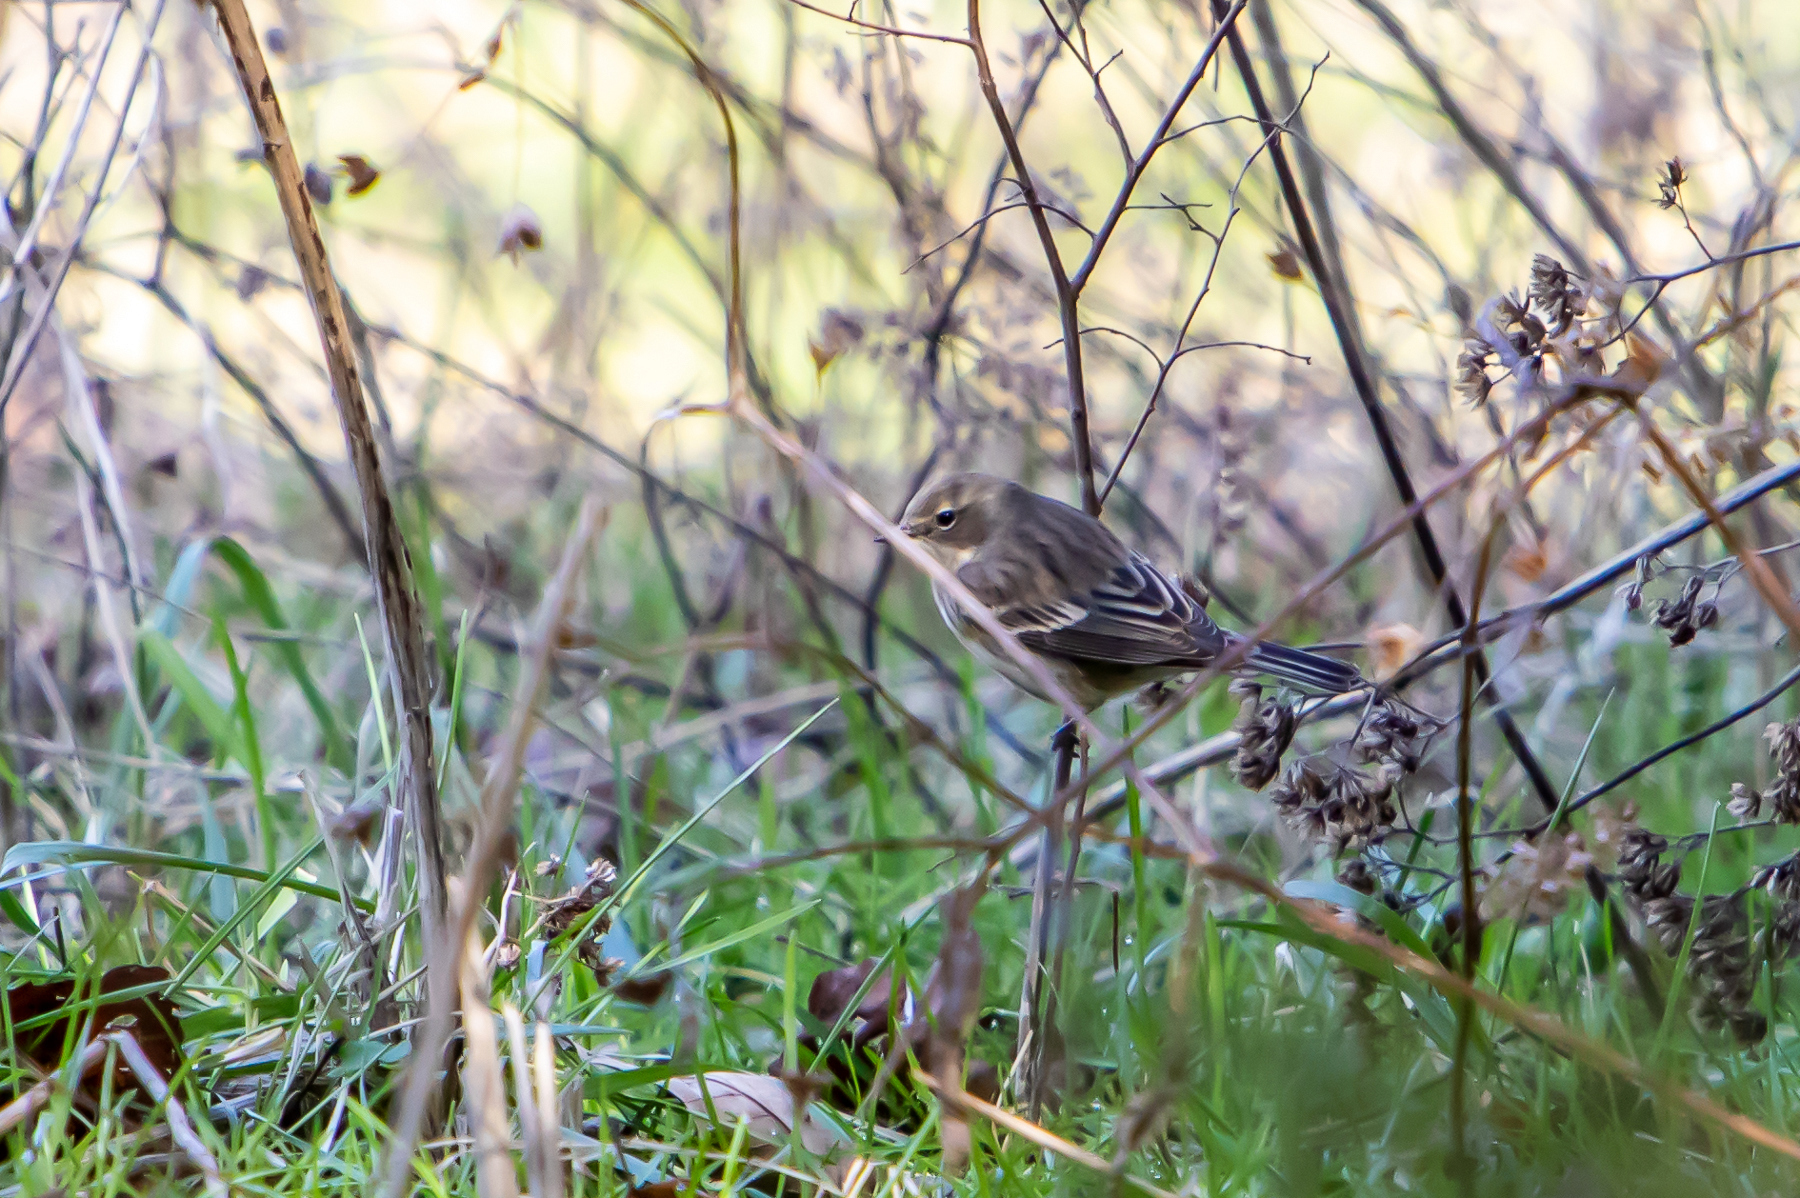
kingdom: Animalia
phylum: Chordata
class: Aves
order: Passeriformes
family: Parulidae
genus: Setophaga
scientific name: Setophaga coronata
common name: Myrtle warbler
